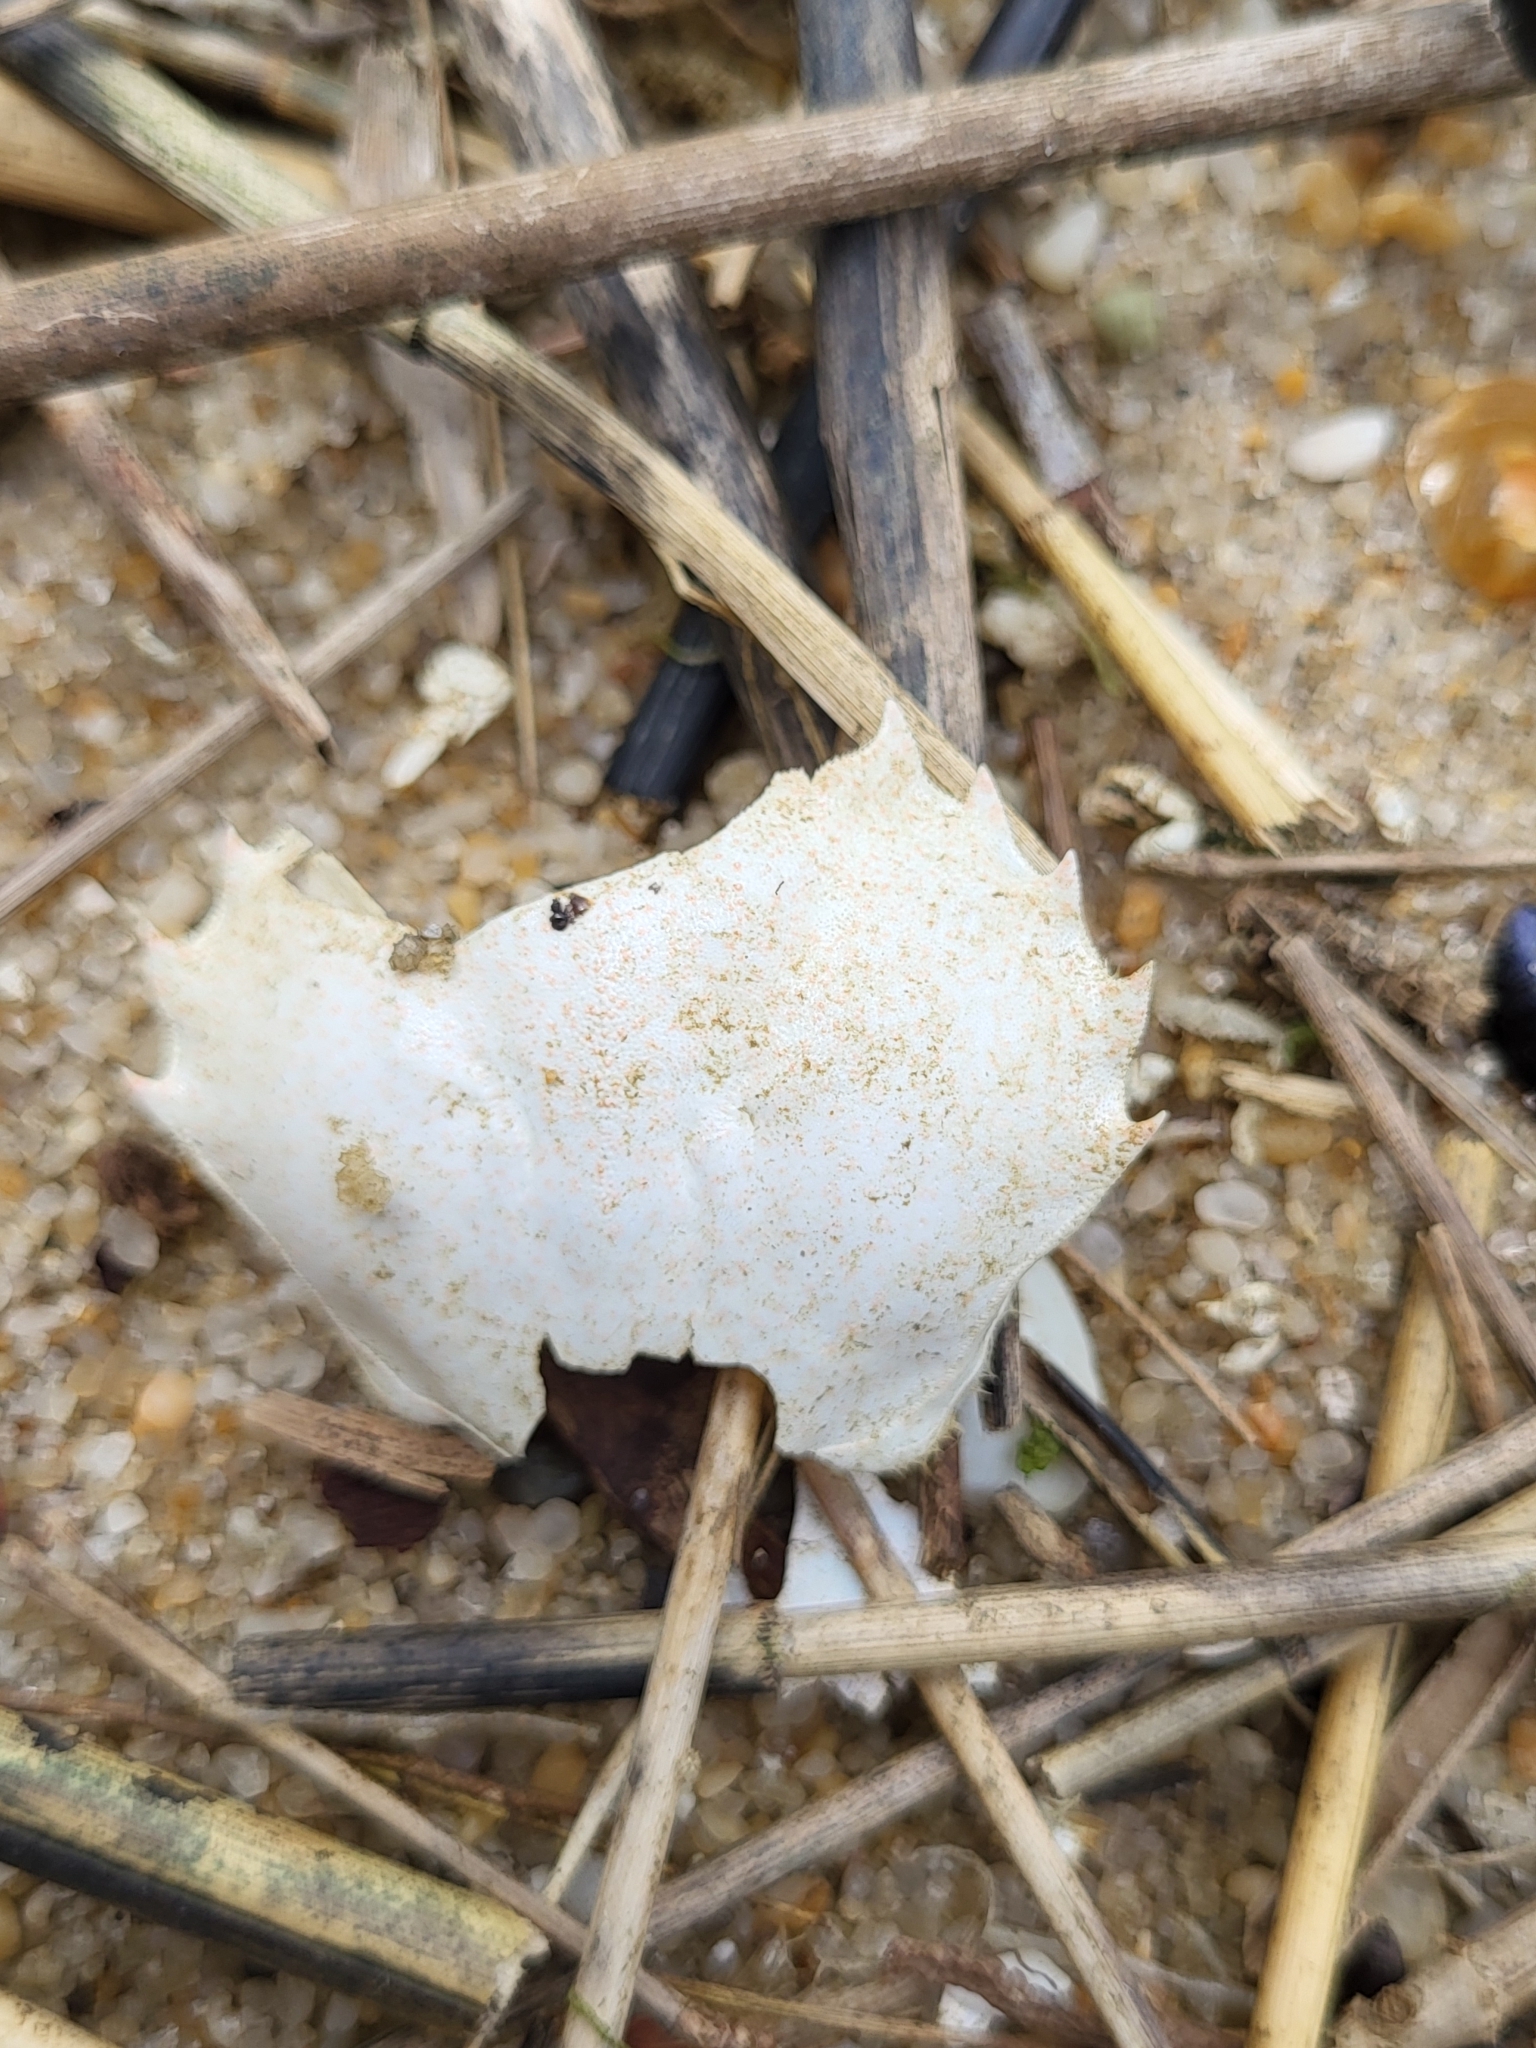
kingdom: Animalia
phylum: Arthropoda
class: Malacostraca
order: Decapoda
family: Ovalipidae
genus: Ovalipes
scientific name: Ovalipes ocellatus
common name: Lady crab
